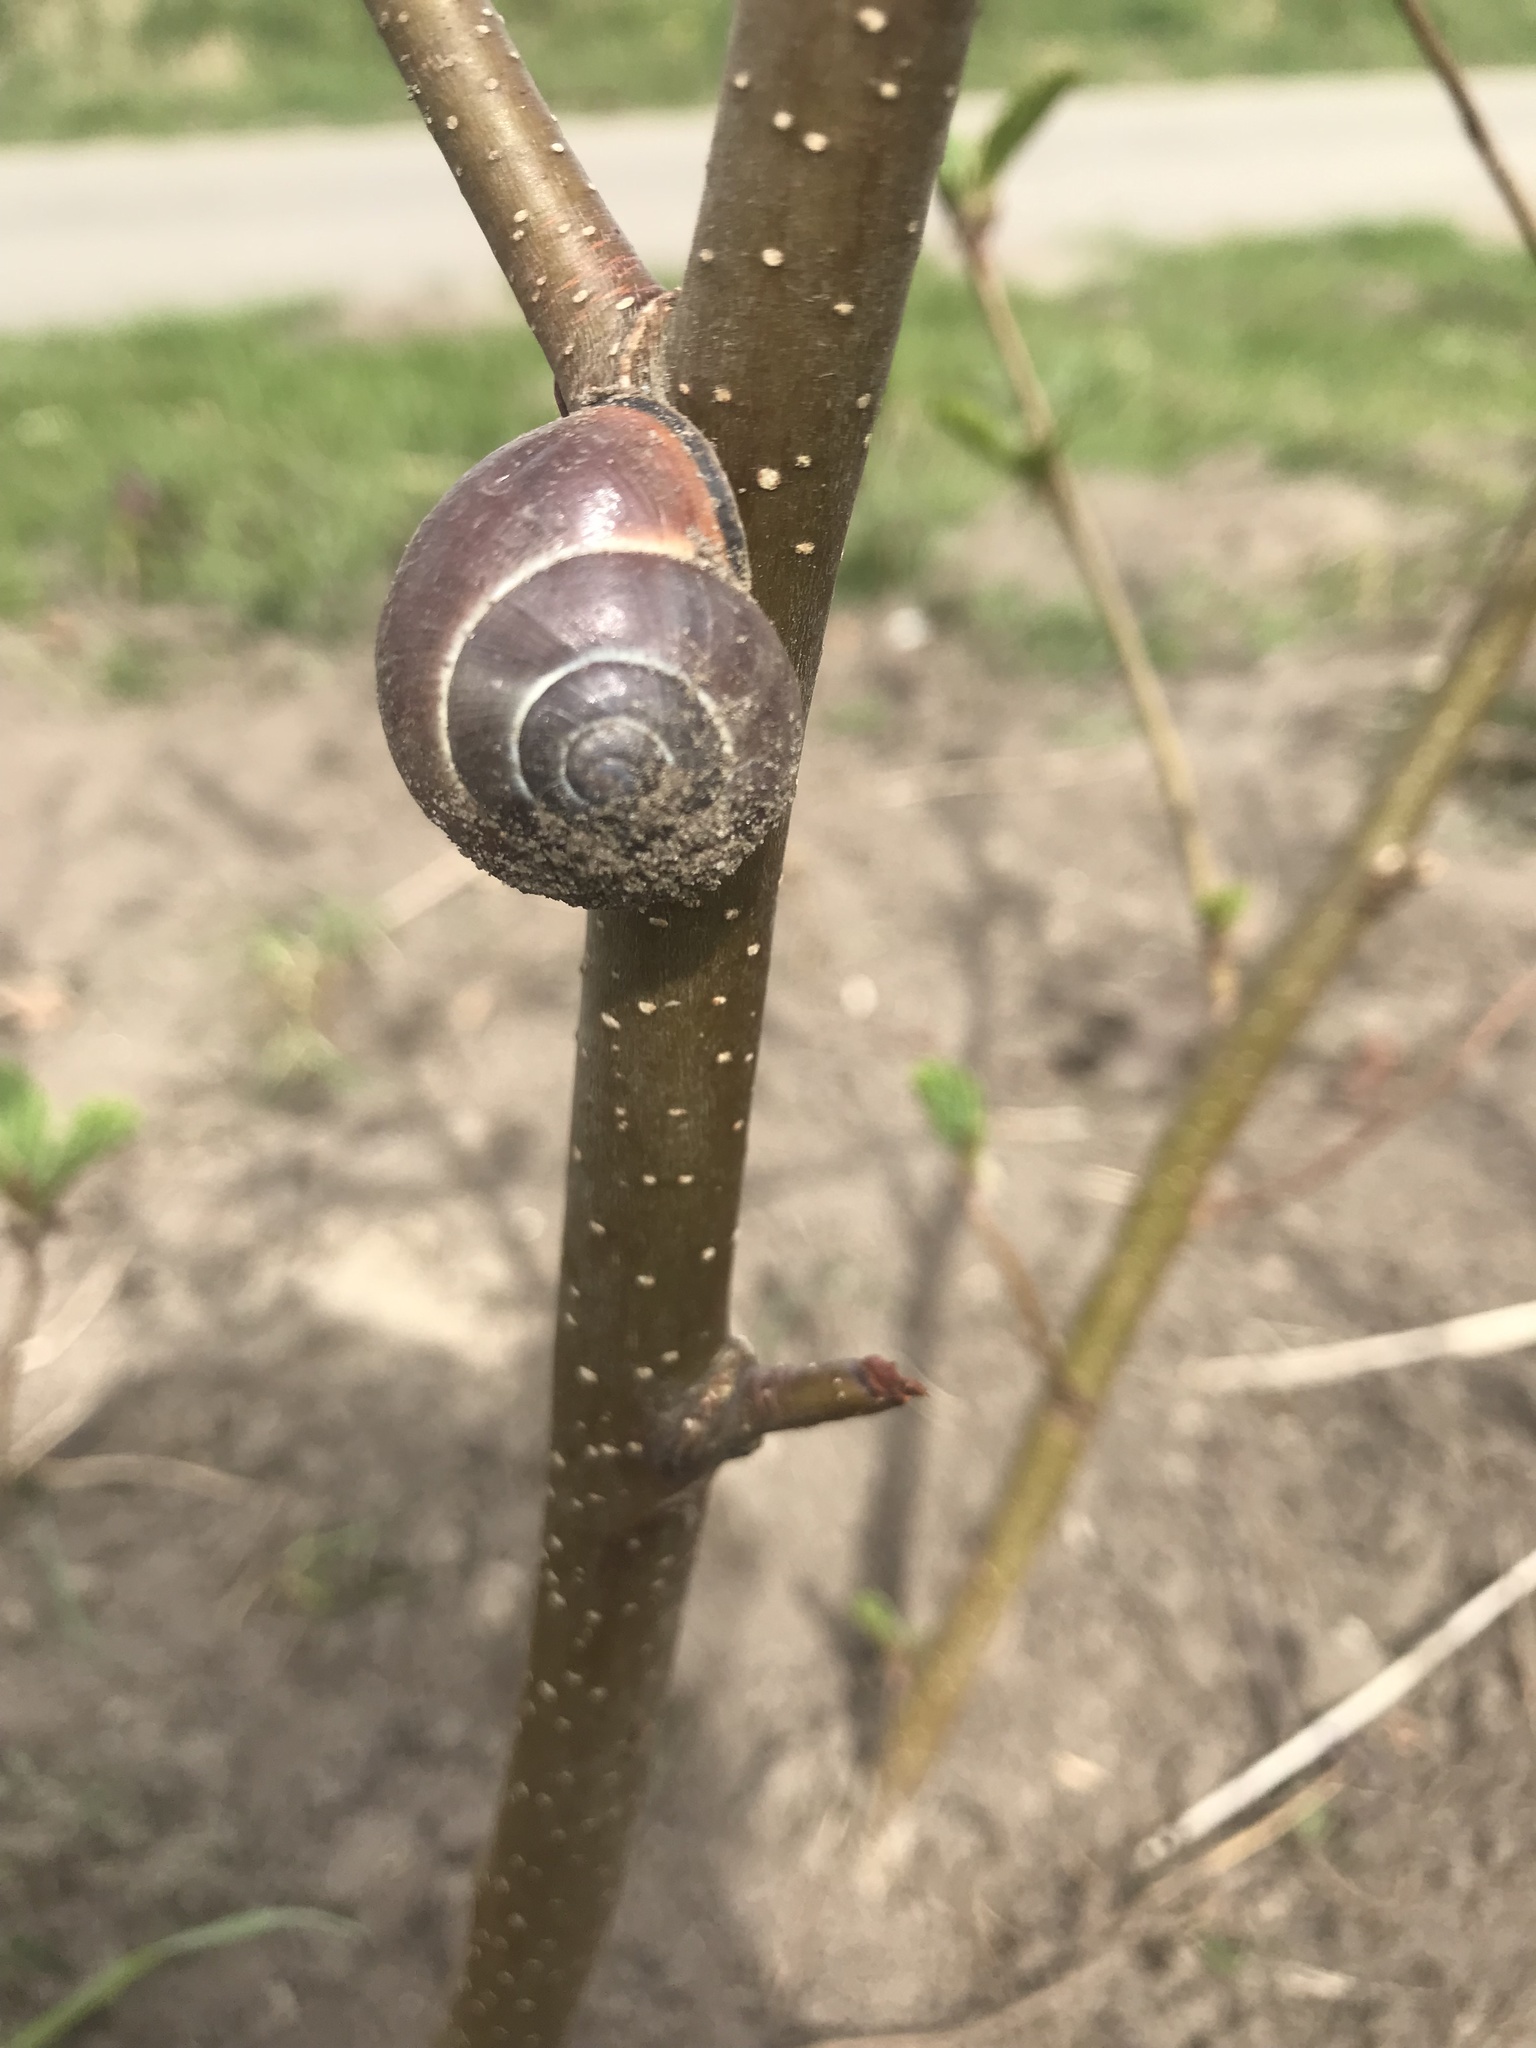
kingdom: Animalia
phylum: Mollusca
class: Gastropoda
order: Stylommatophora
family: Helicidae
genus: Cepaea
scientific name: Cepaea nemoralis
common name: Grovesnail
